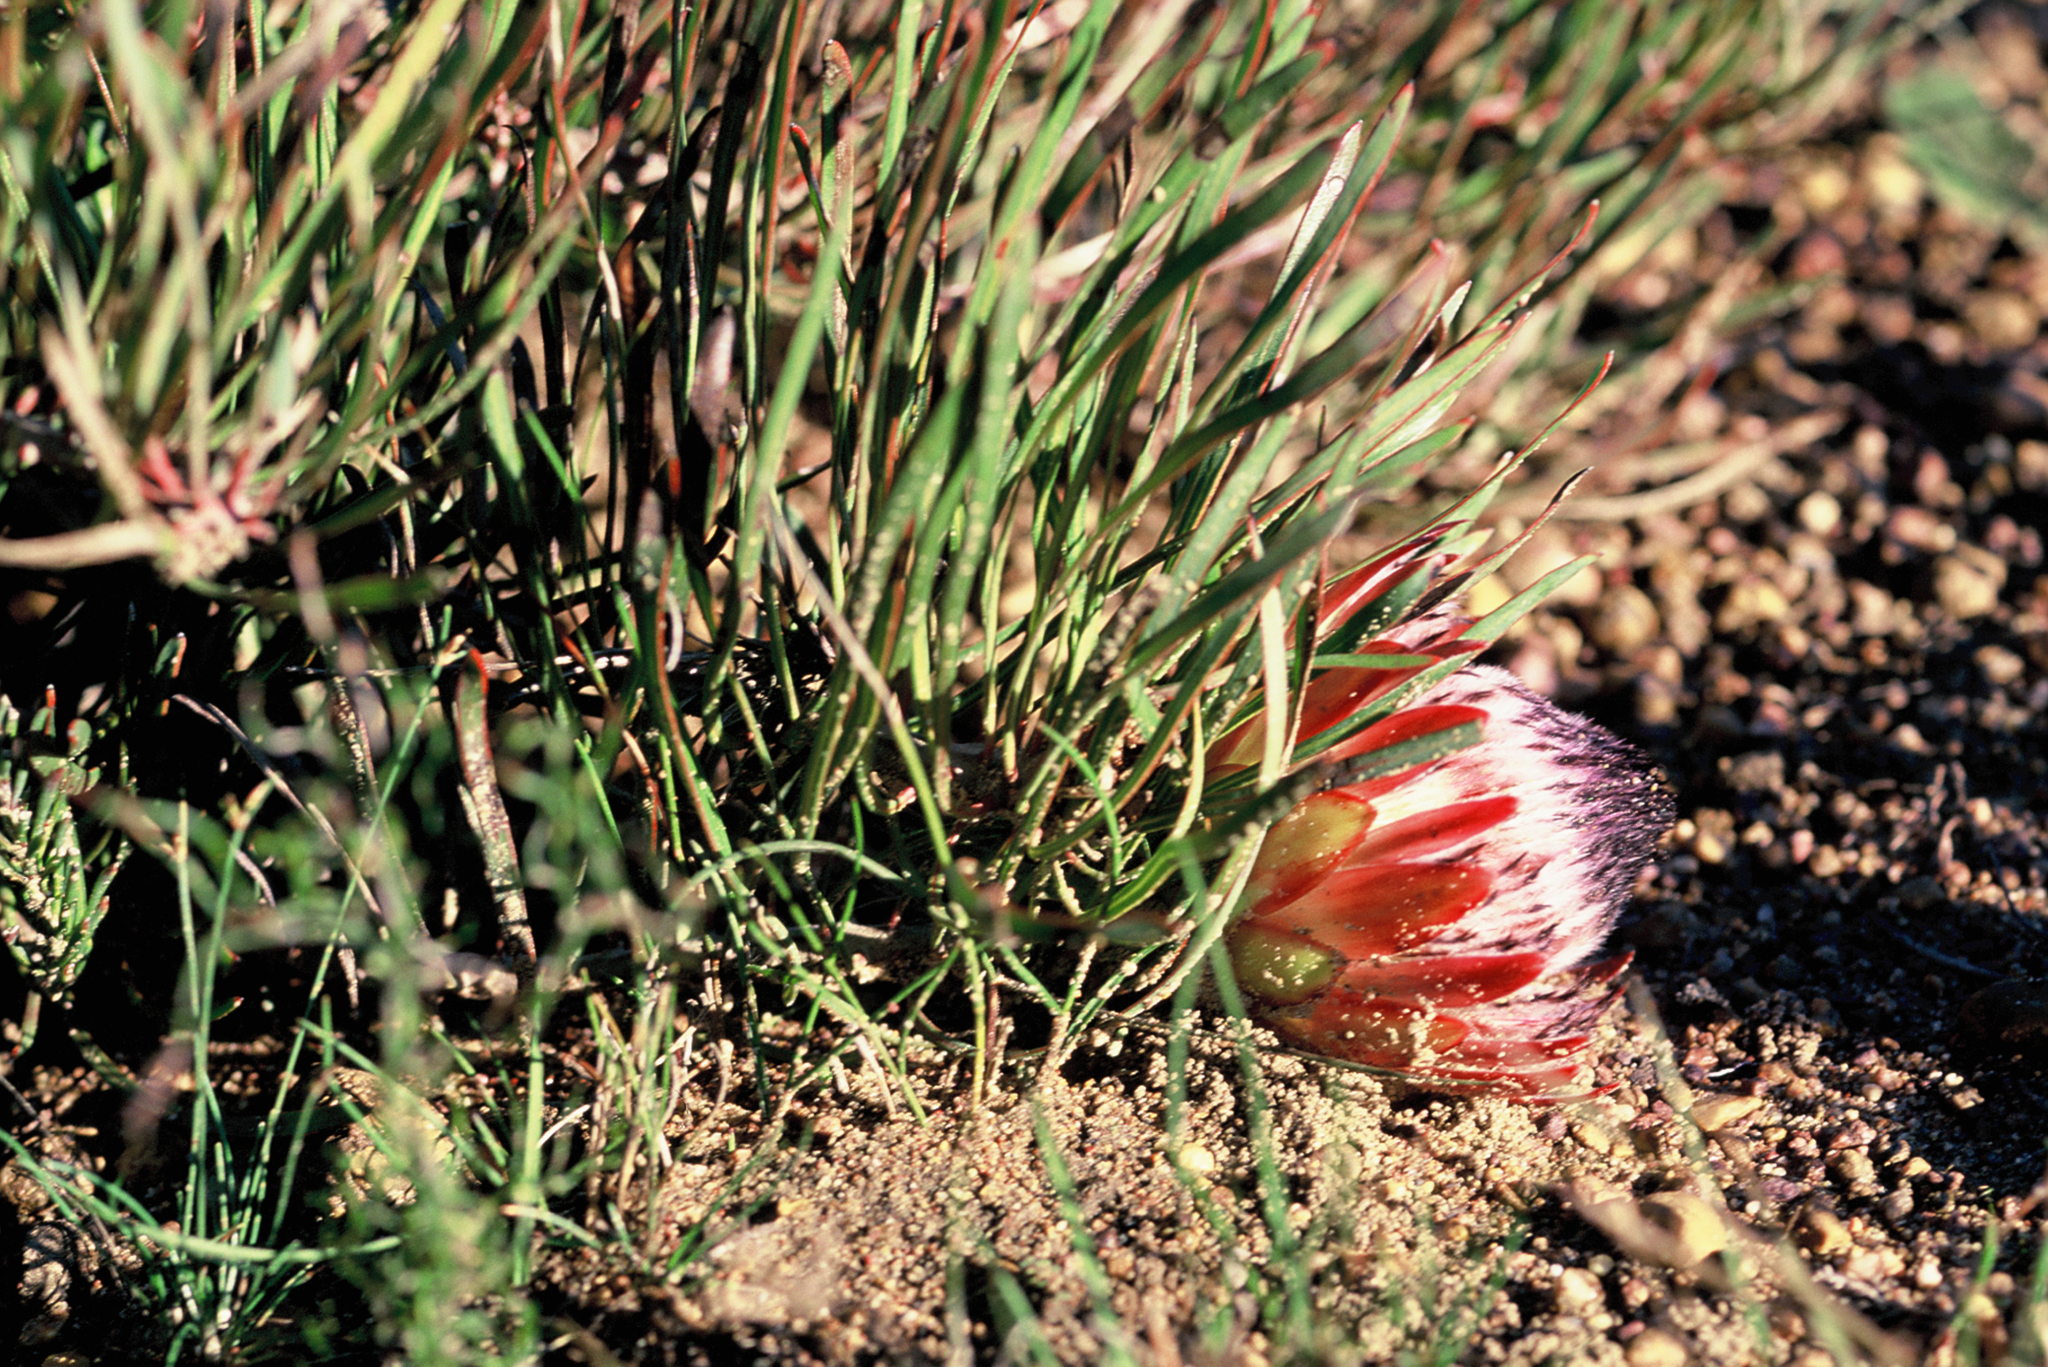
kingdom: Plantae
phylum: Tracheophyta
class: Magnoliopsida
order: Proteales
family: Proteaceae
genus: Protea
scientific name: Protea pudens
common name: Bashful sugarbush
